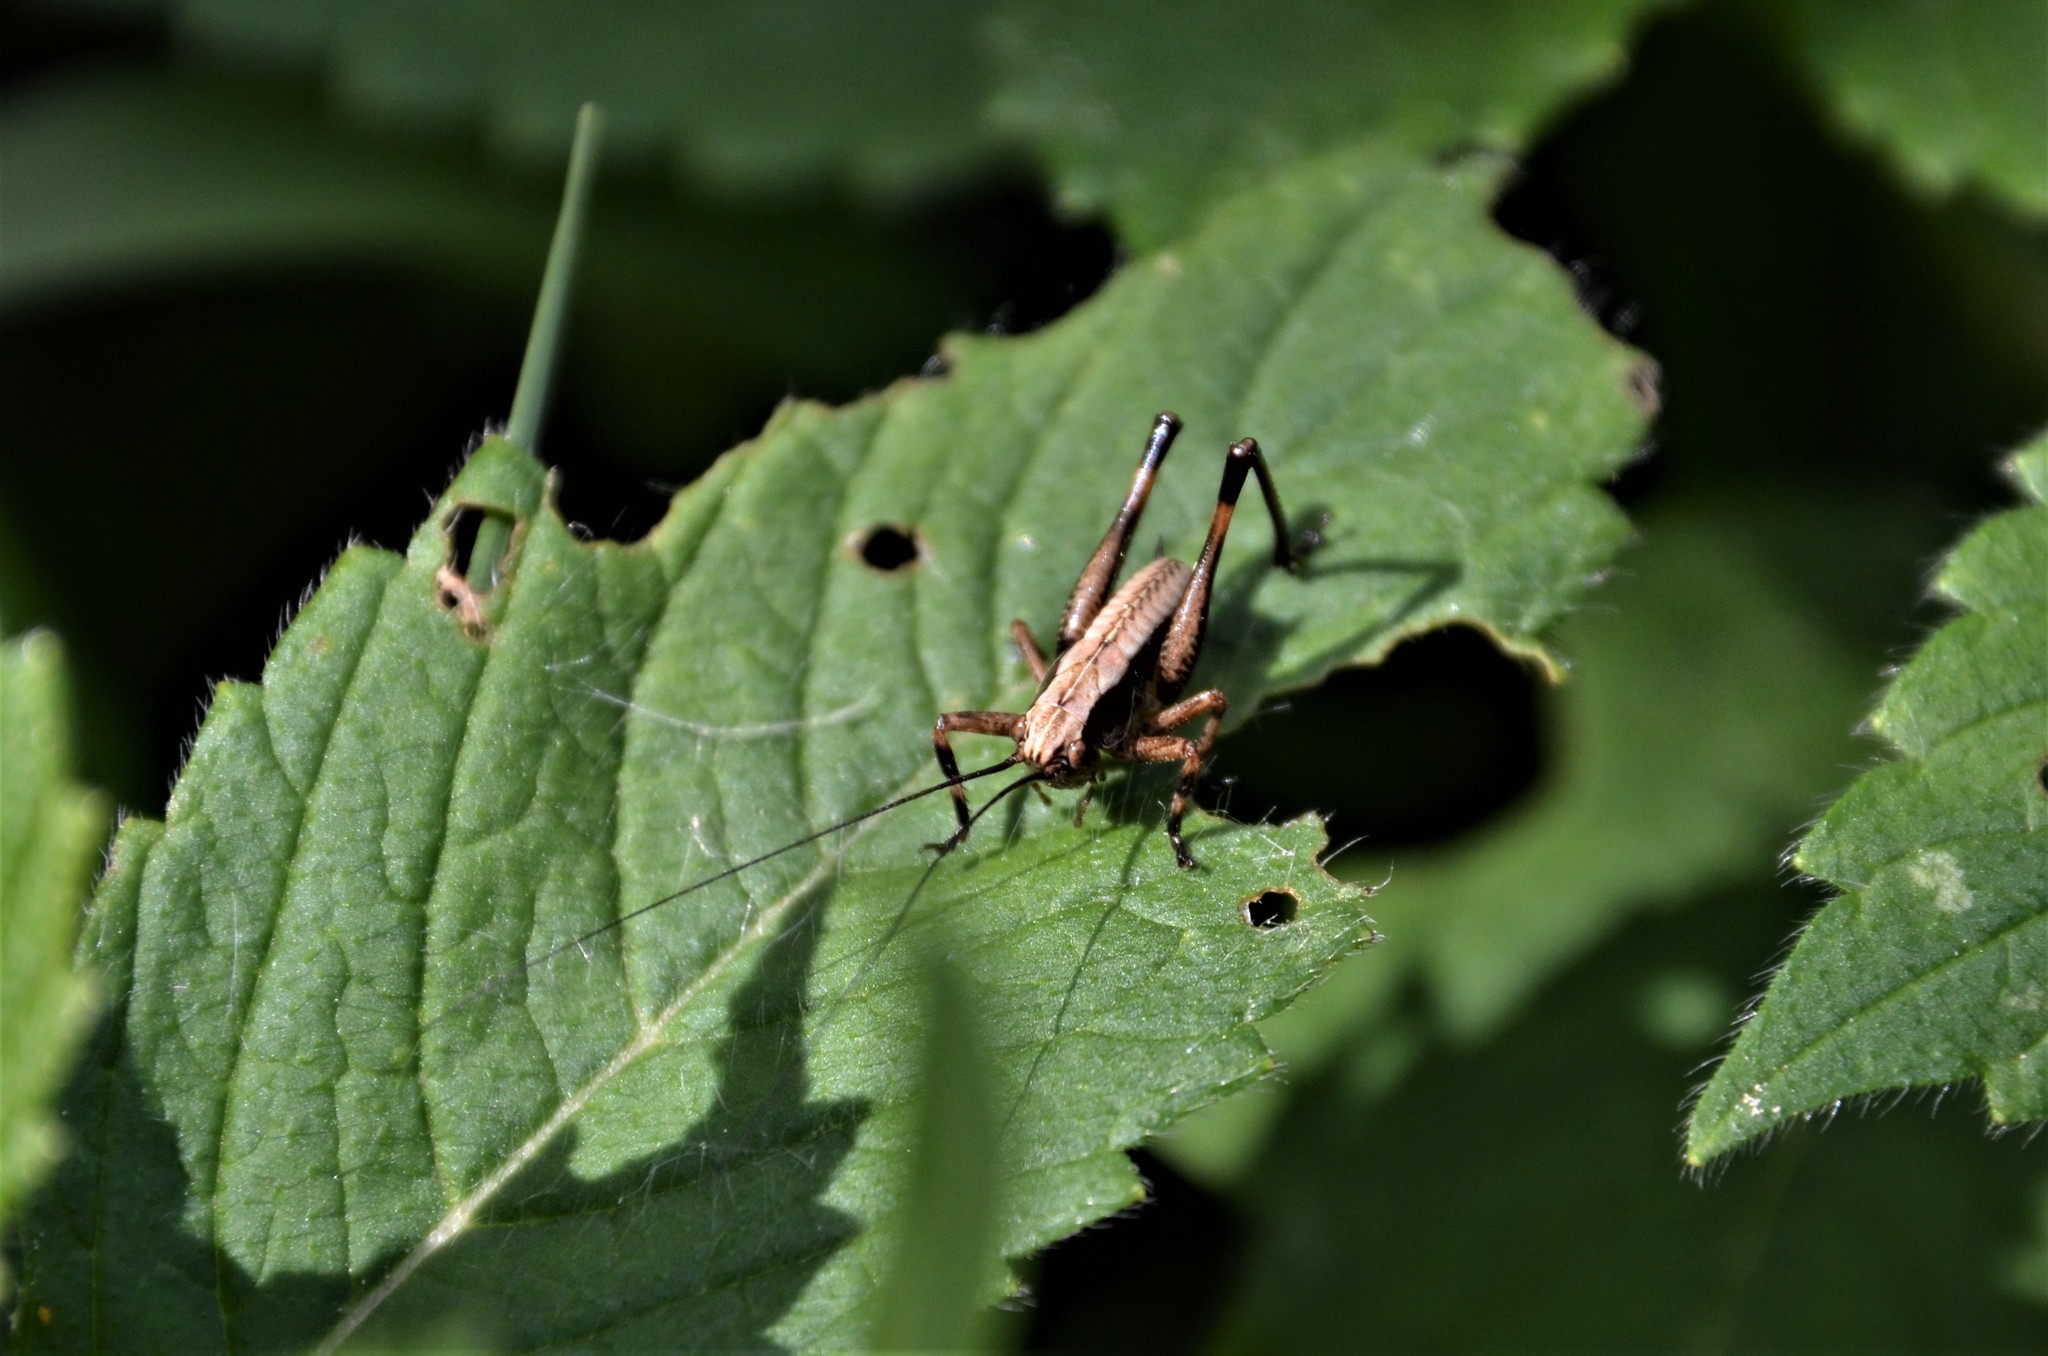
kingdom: Animalia
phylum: Arthropoda
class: Insecta
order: Orthoptera
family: Tettigoniidae
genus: Pholidoptera
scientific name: Pholidoptera griseoaptera
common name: Dark bush-cricket
